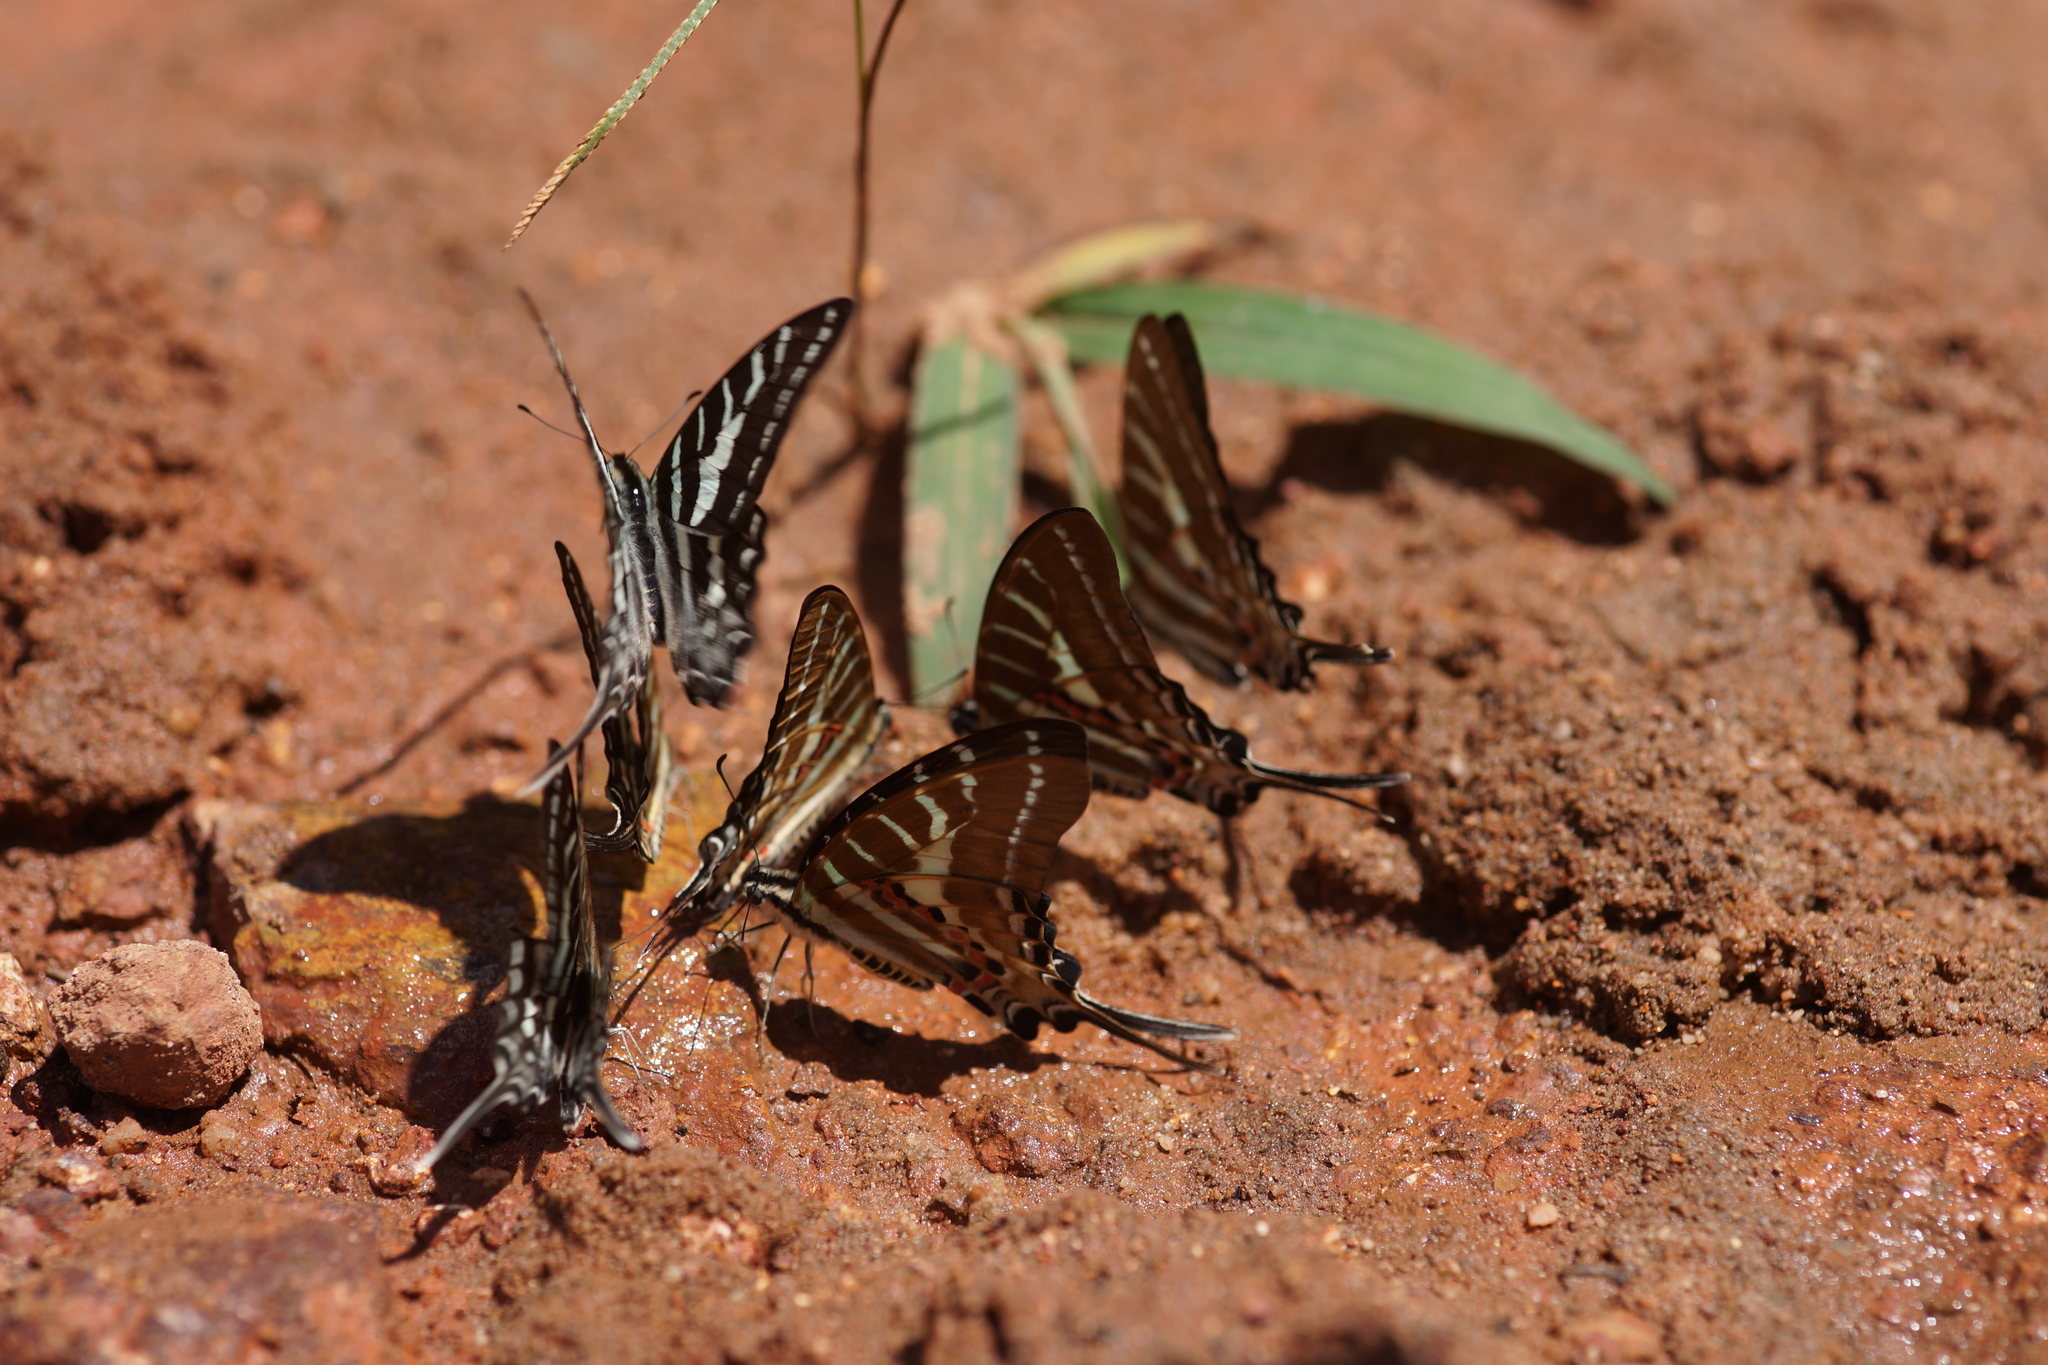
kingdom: Animalia
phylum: Arthropoda
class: Insecta
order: Lepidoptera
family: Papilionidae
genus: Graphium
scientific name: Graphium aristeus
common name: Chain swordtail
